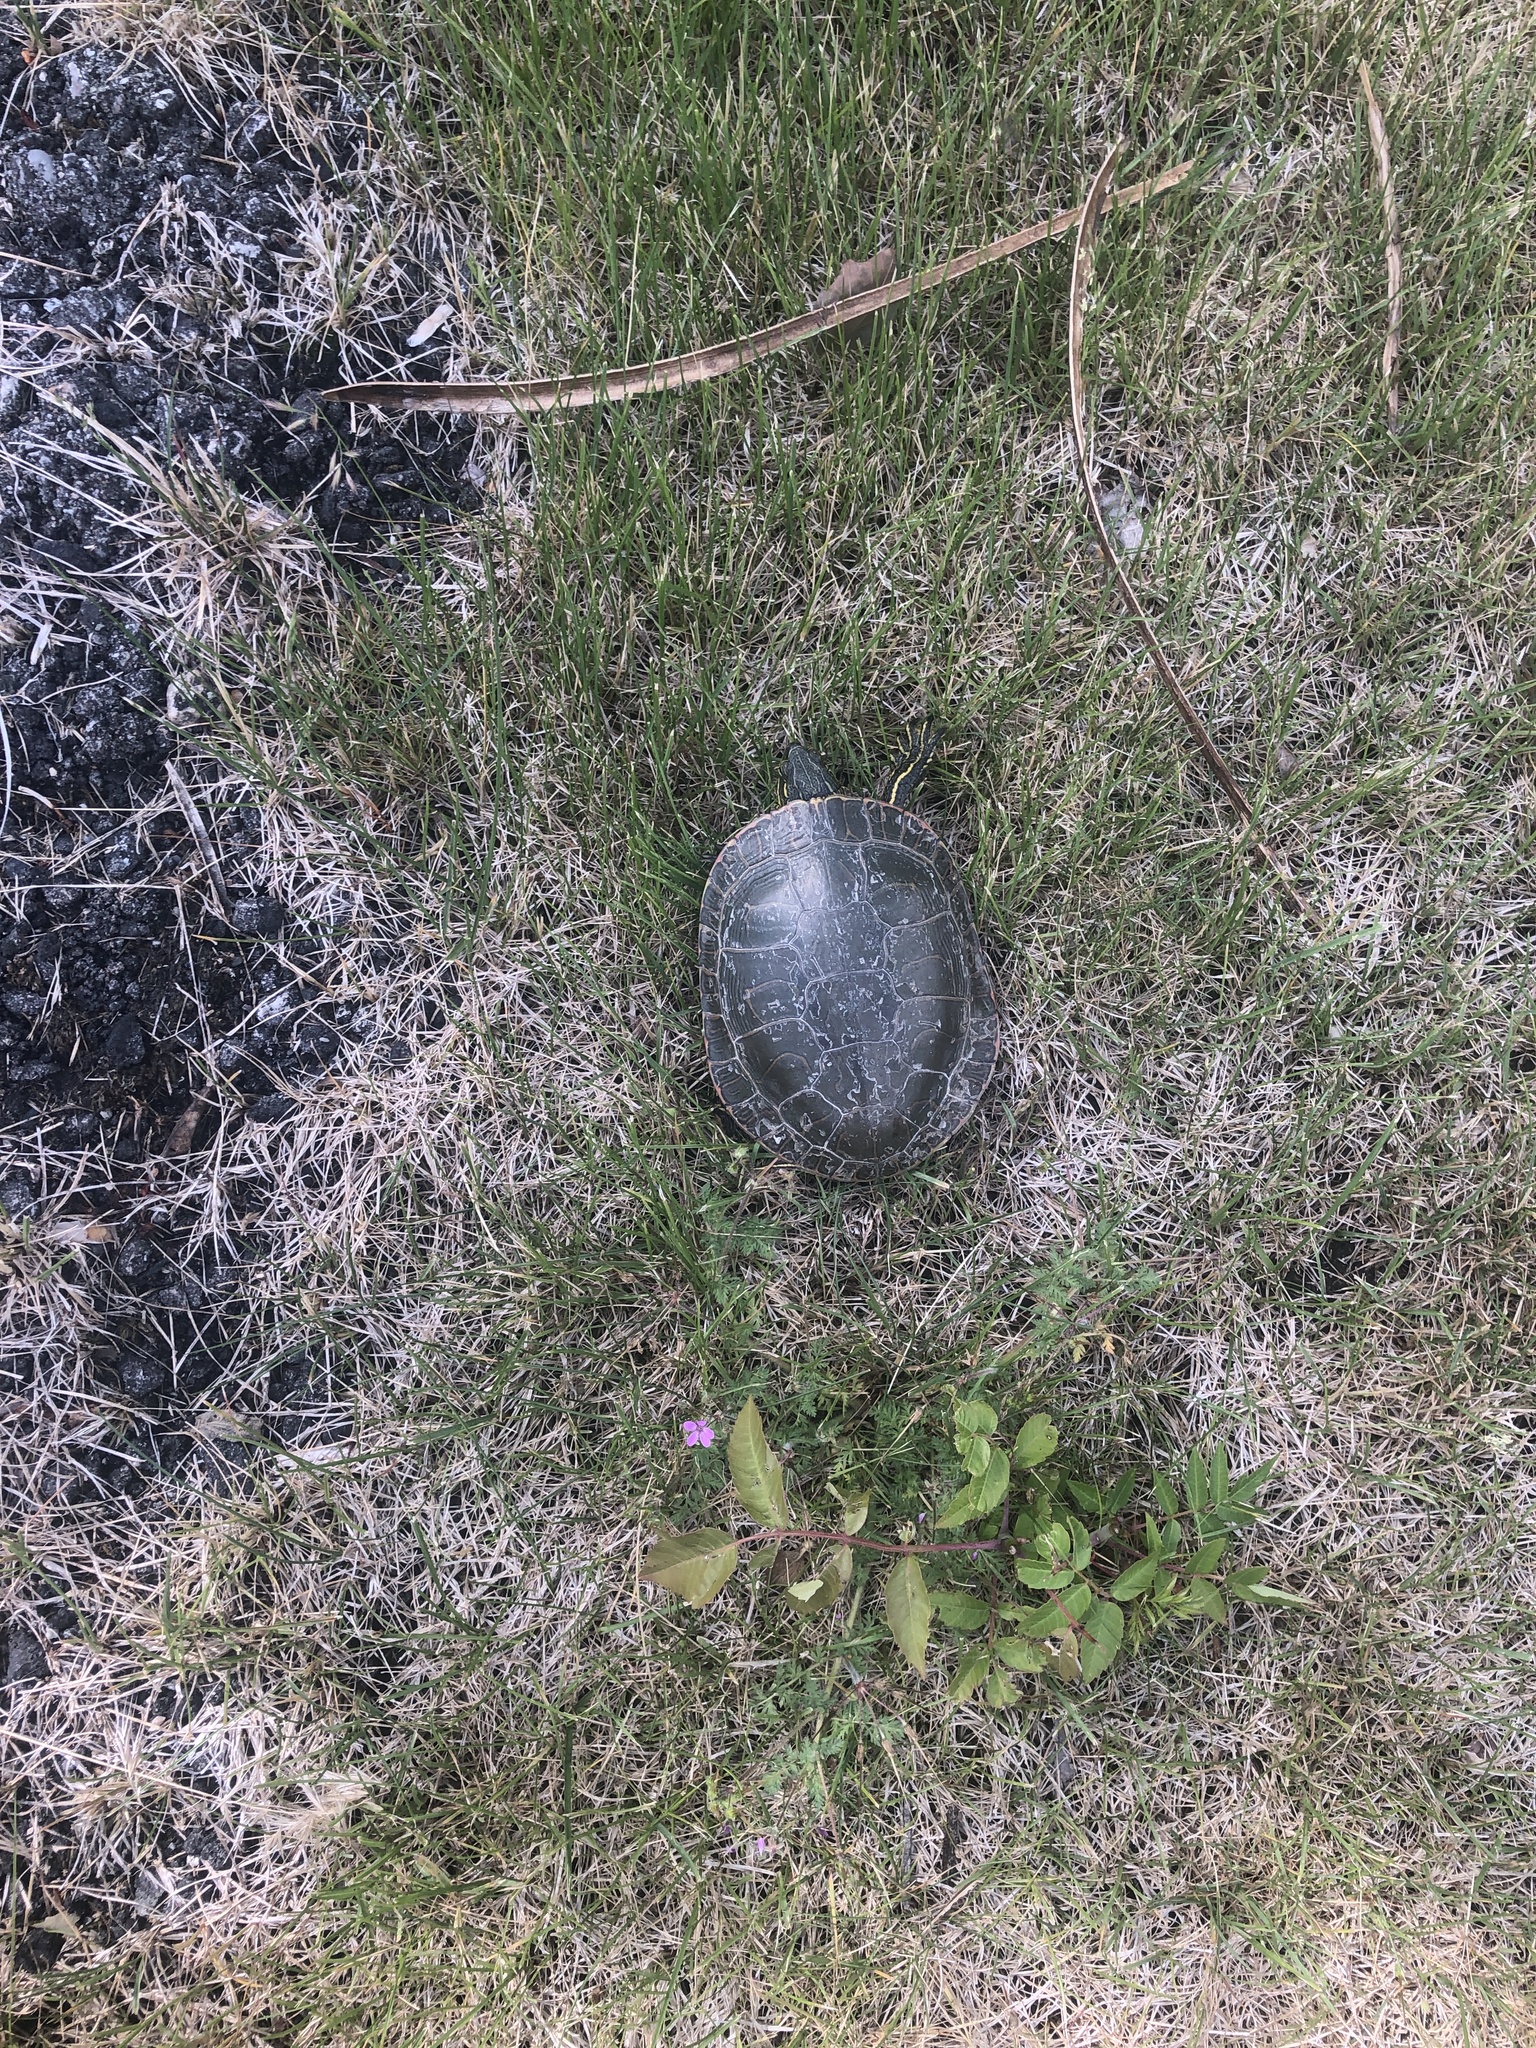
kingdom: Animalia
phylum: Chordata
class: Testudines
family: Emydidae
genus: Chrysemys
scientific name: Chrysemys picta
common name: Painted turtle
